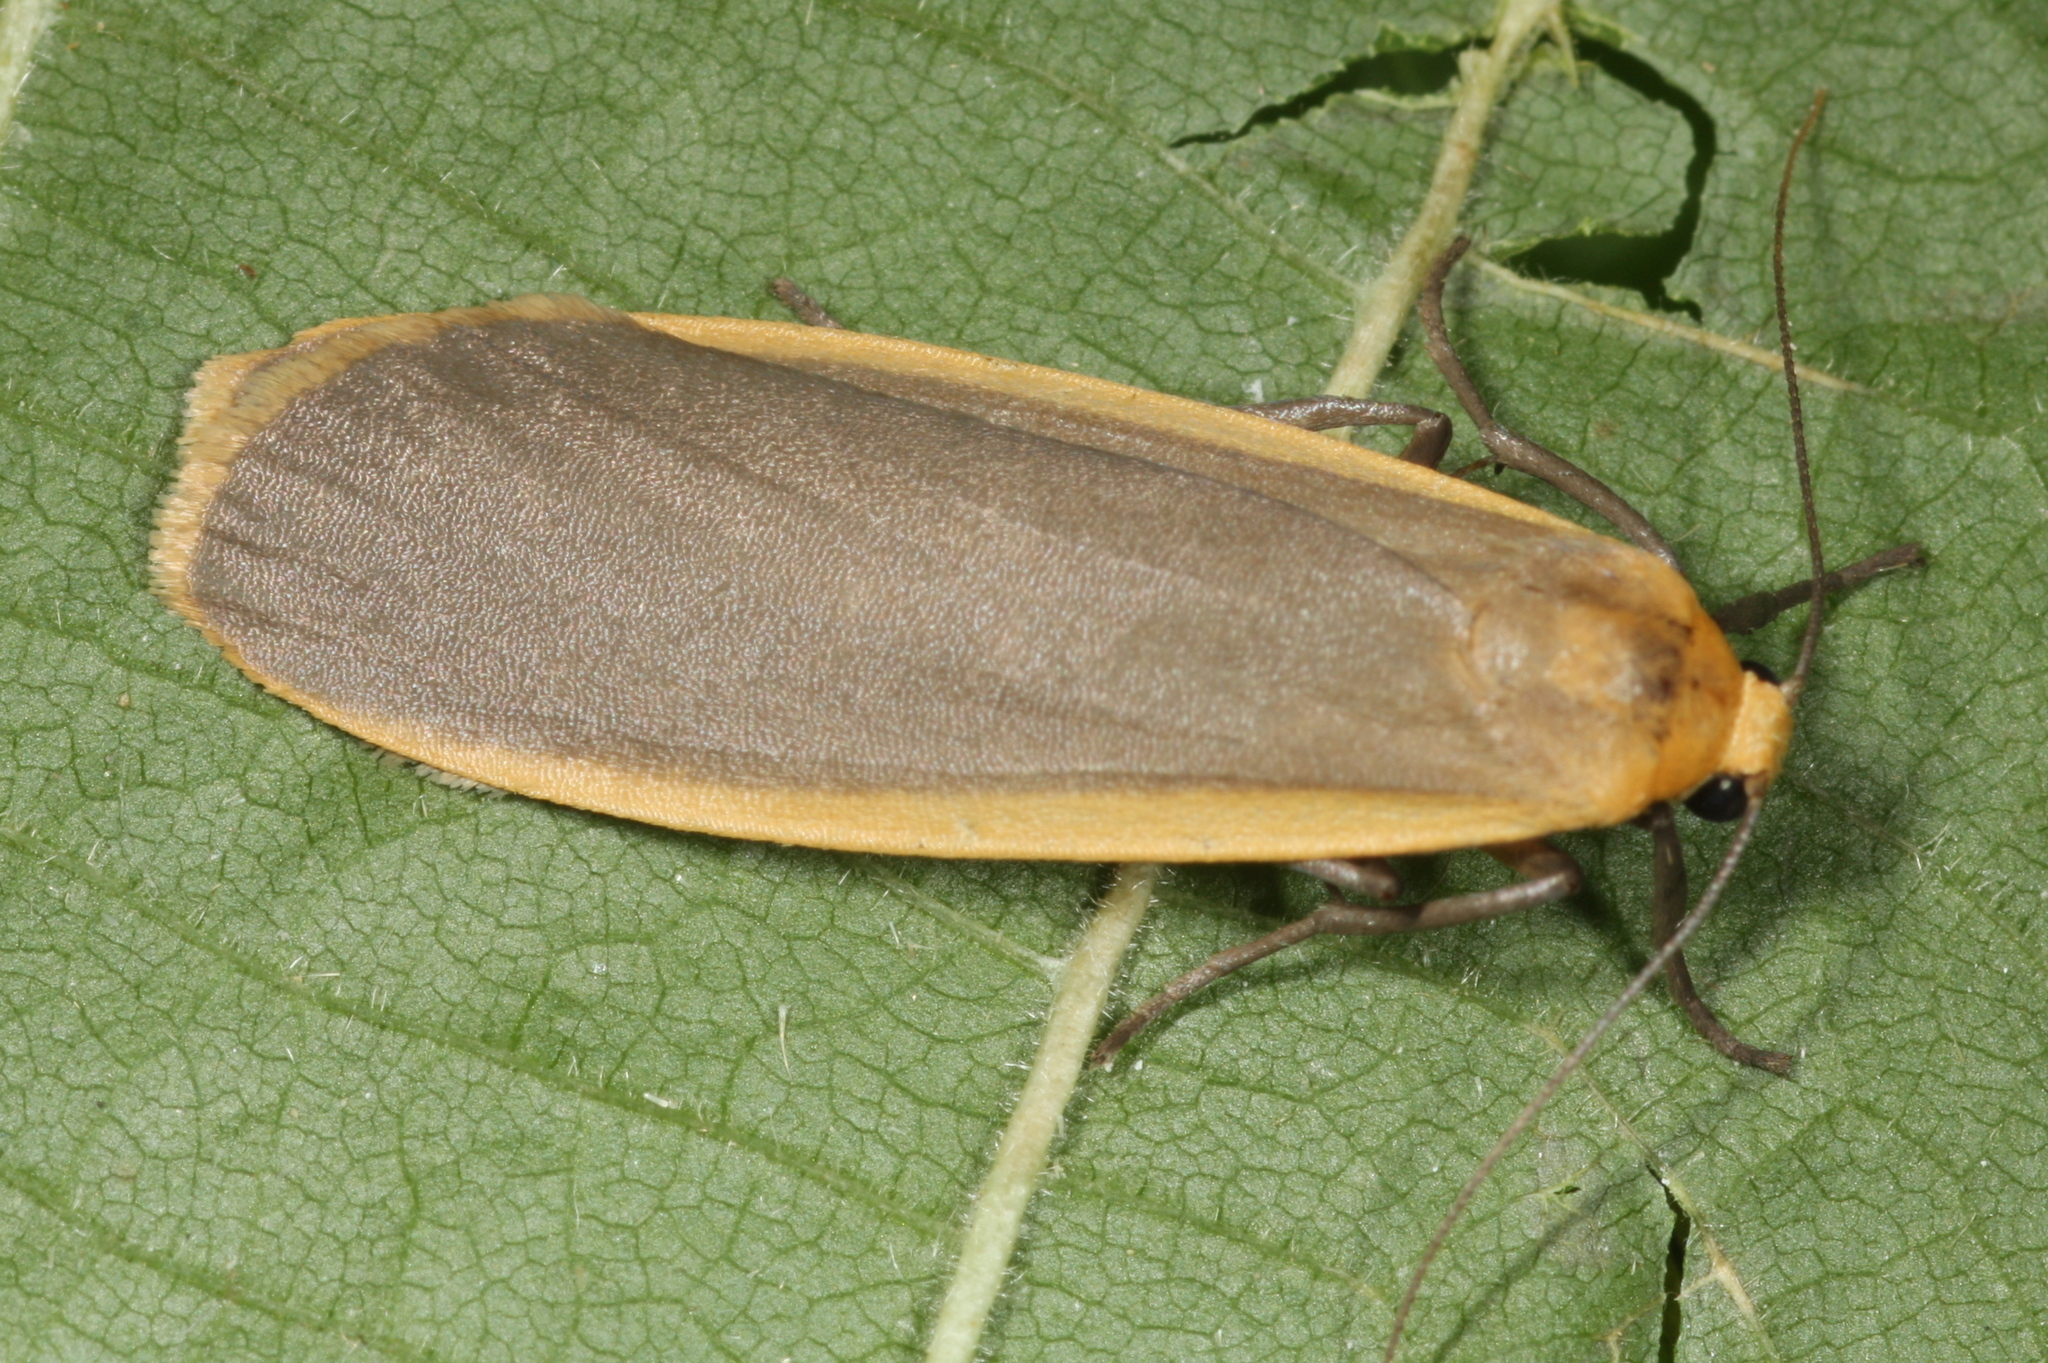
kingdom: Animalia
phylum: Arthropoda
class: Insecta
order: Lepidoptera
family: Erebidae
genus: Katha
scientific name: Katha depressa
